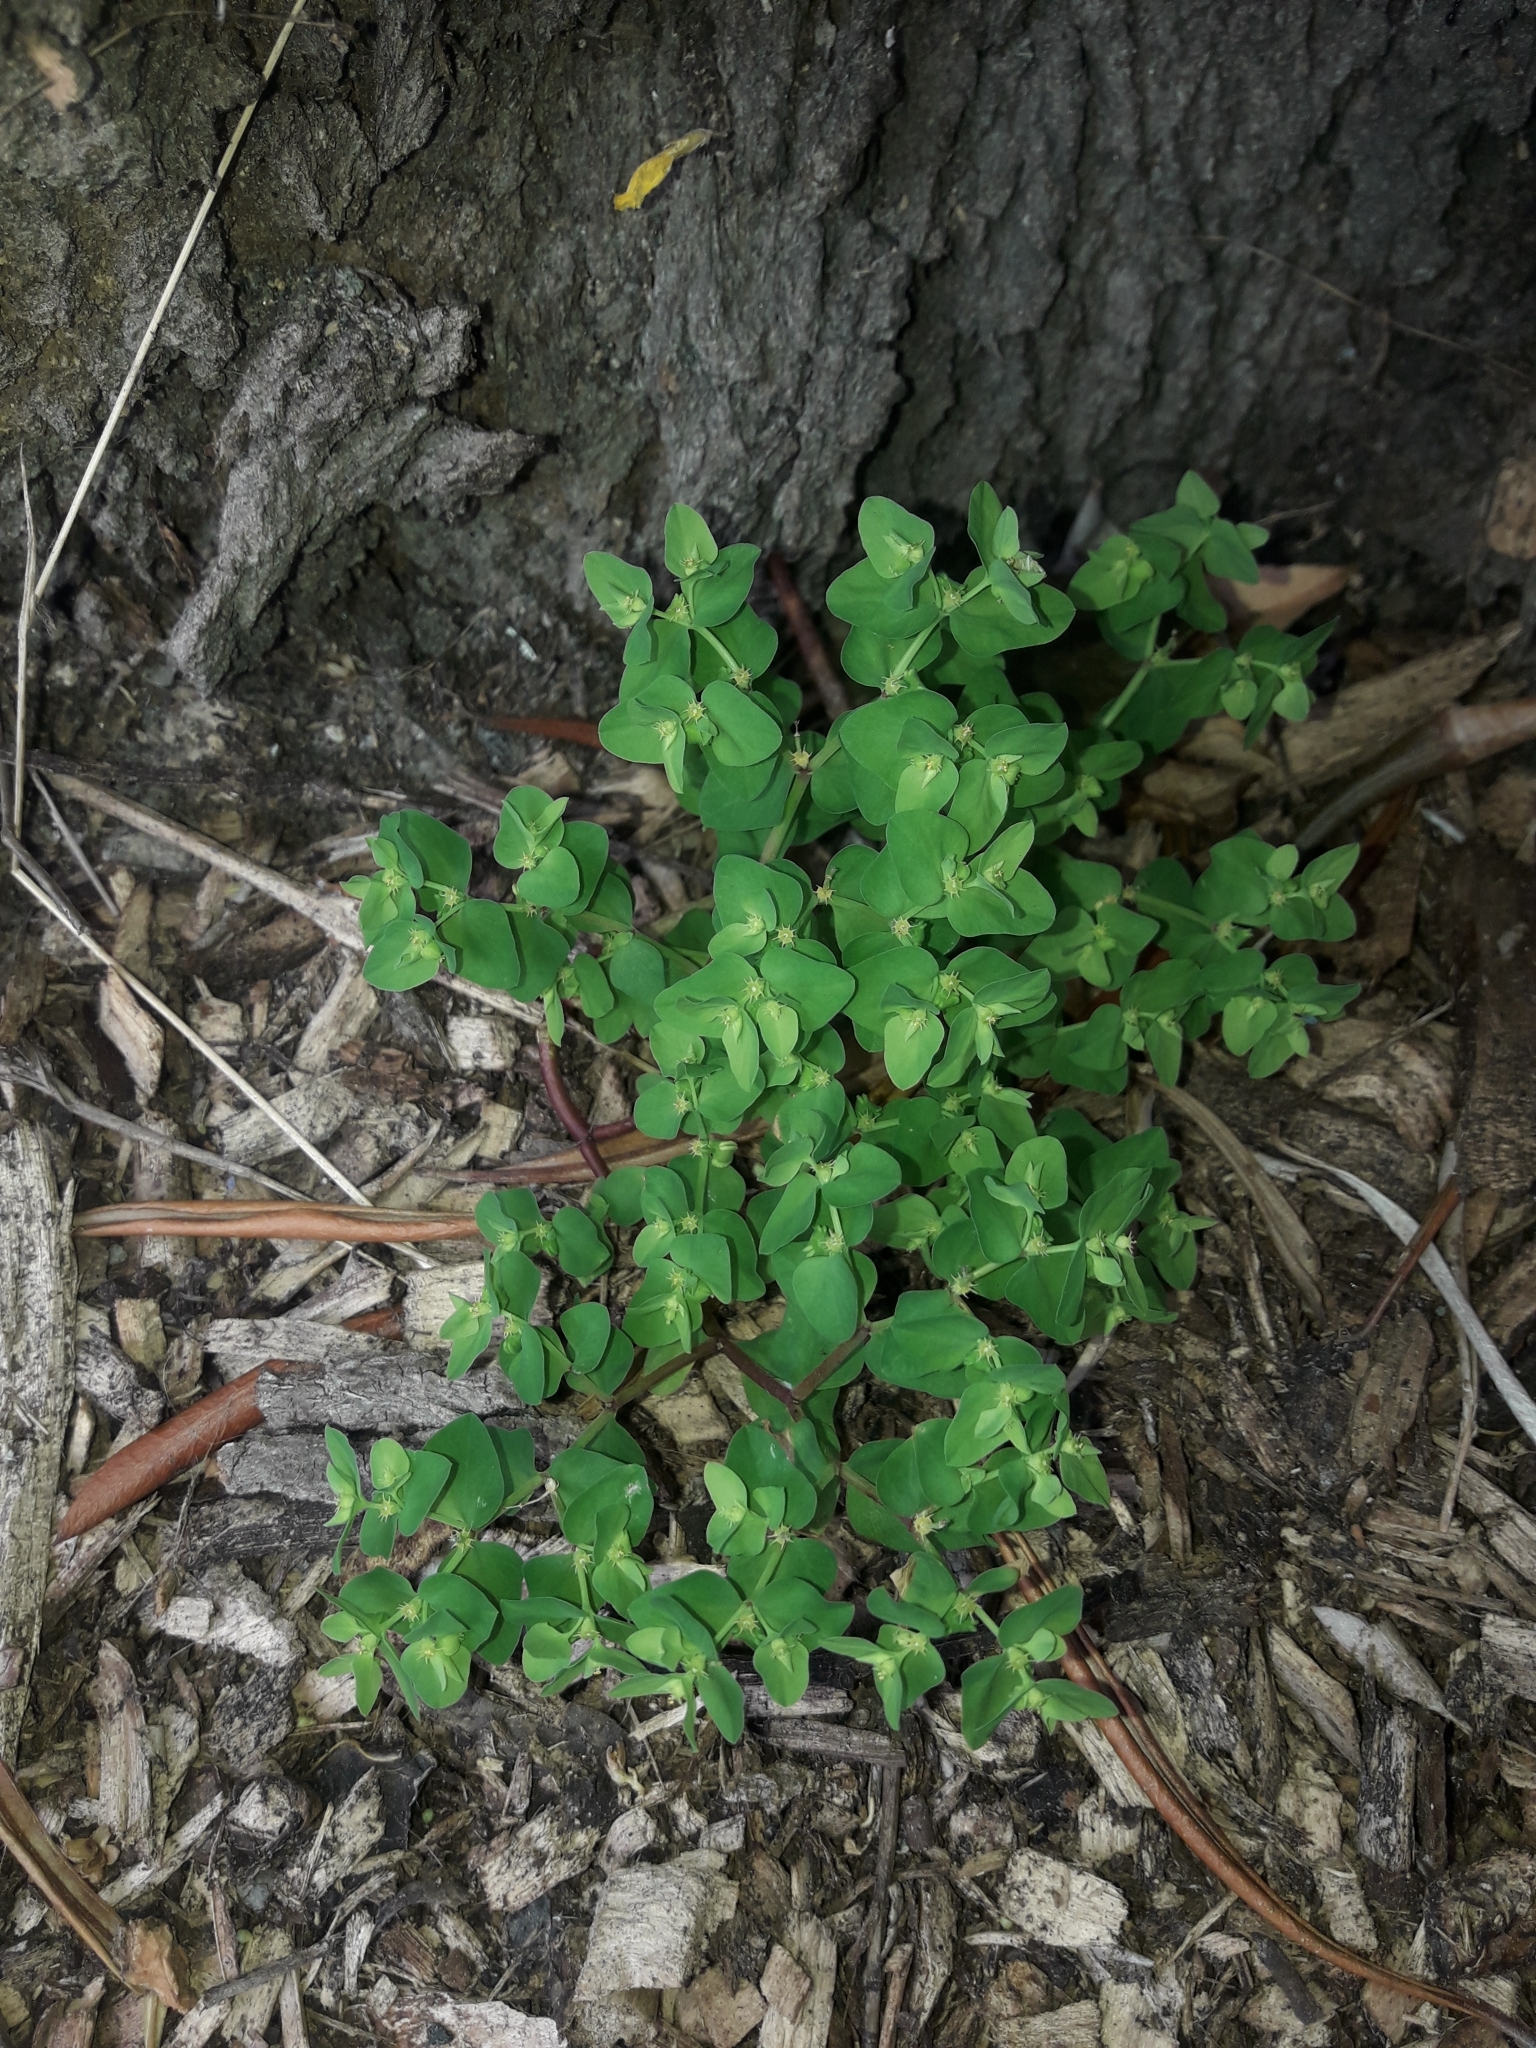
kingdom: Plantae
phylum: Tracheophyta
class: Magnoliopsida
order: Malpighiales
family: Euphorbiaceae
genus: Euphorbia
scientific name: Euphorbia peplus
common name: Petty spurge
